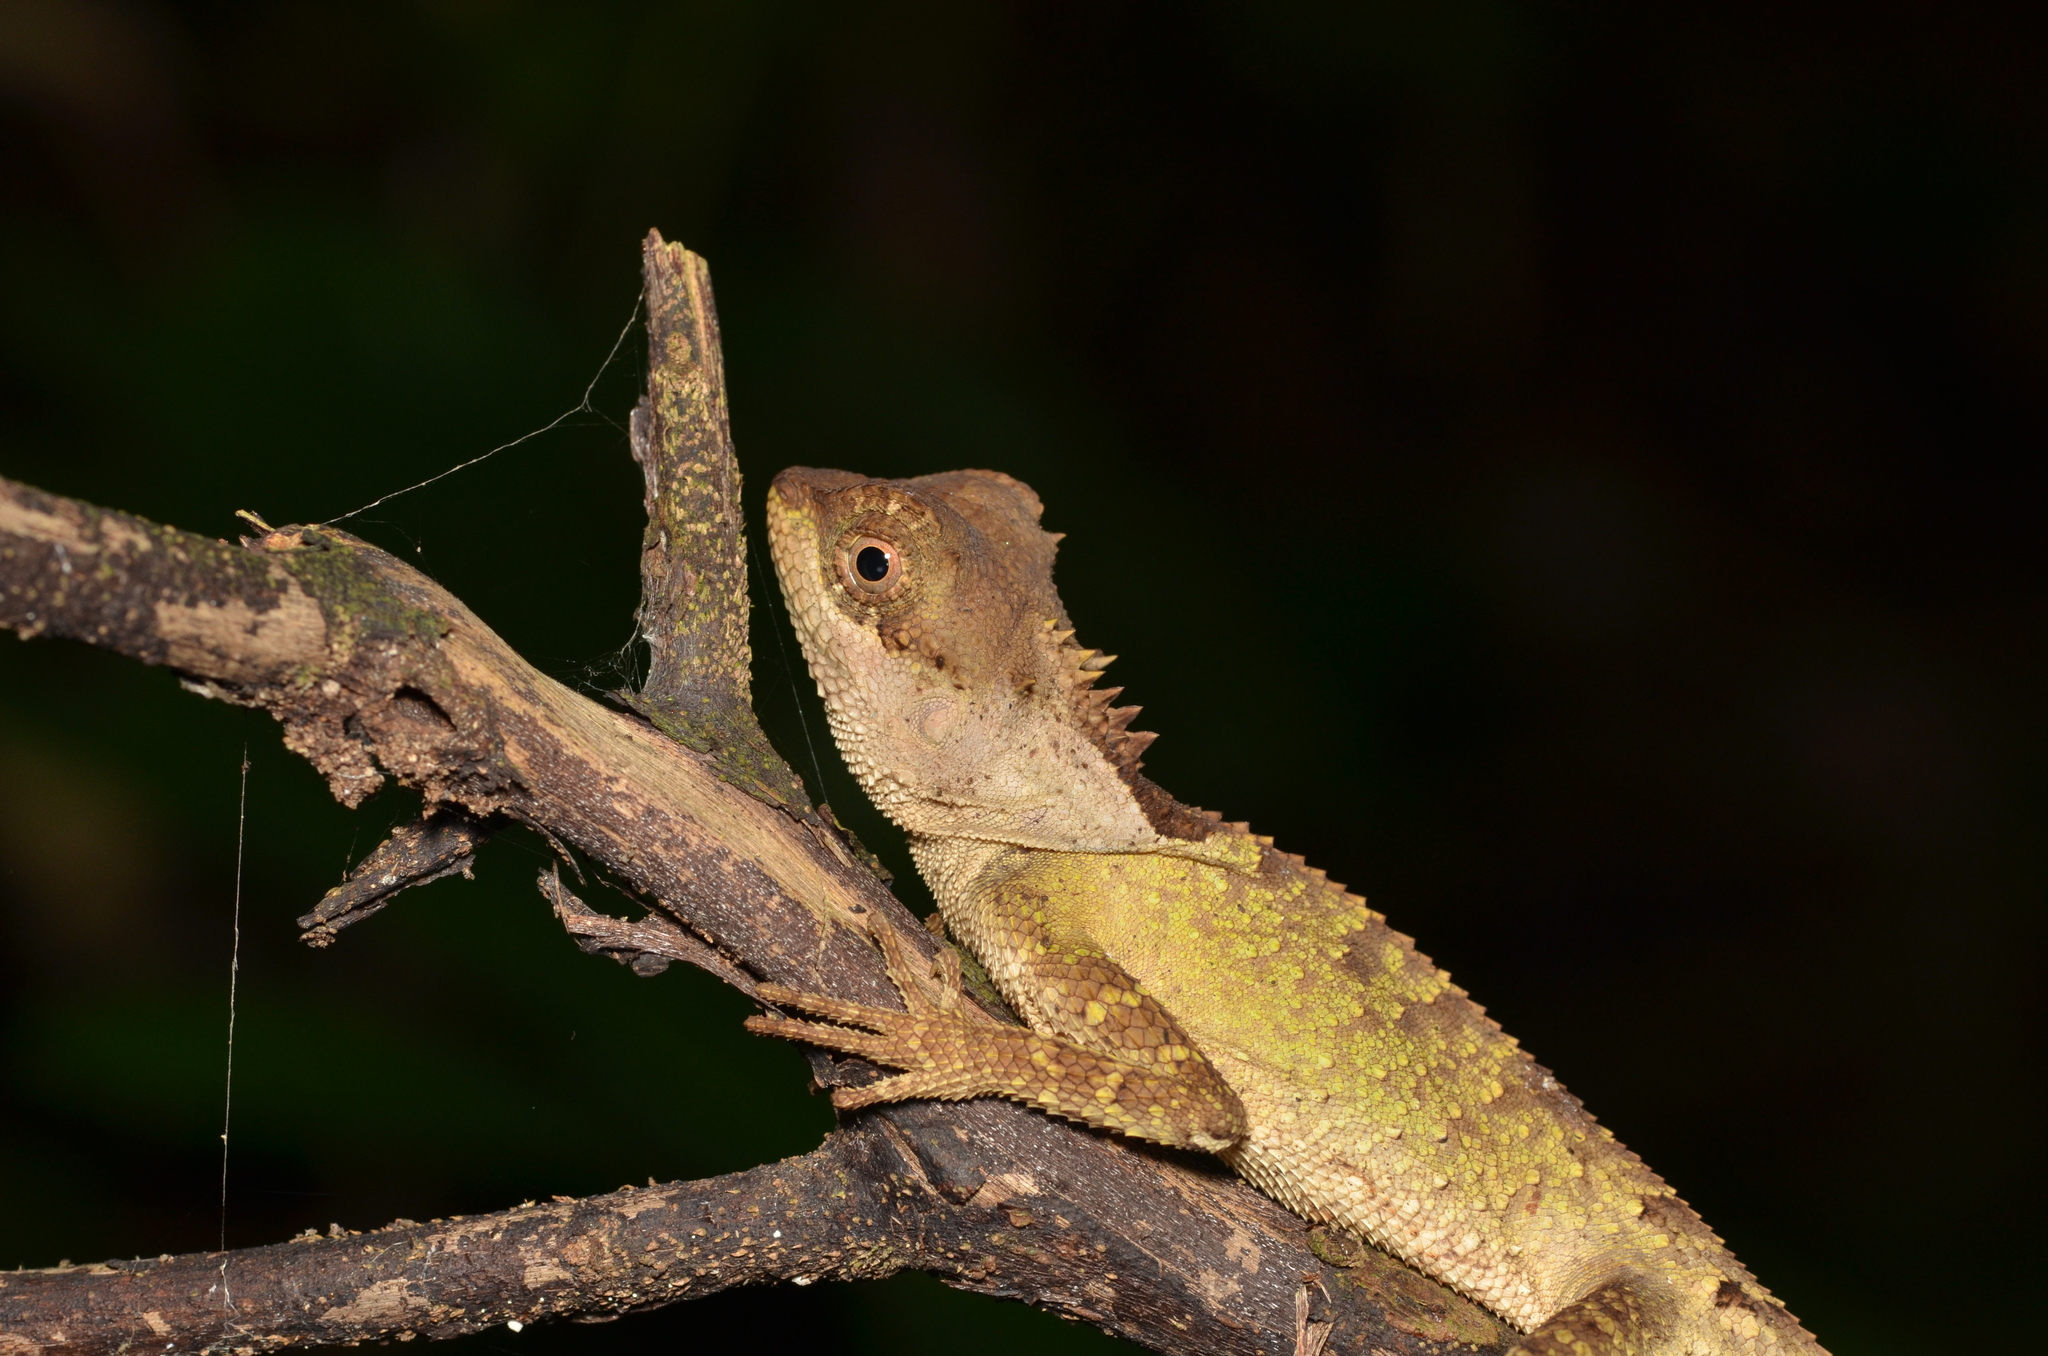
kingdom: Animalia
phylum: Chordata
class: Squamata
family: Agamidae
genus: Acanthosaura
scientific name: Acanthosaura lepidogaster
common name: Brown pricklenape
